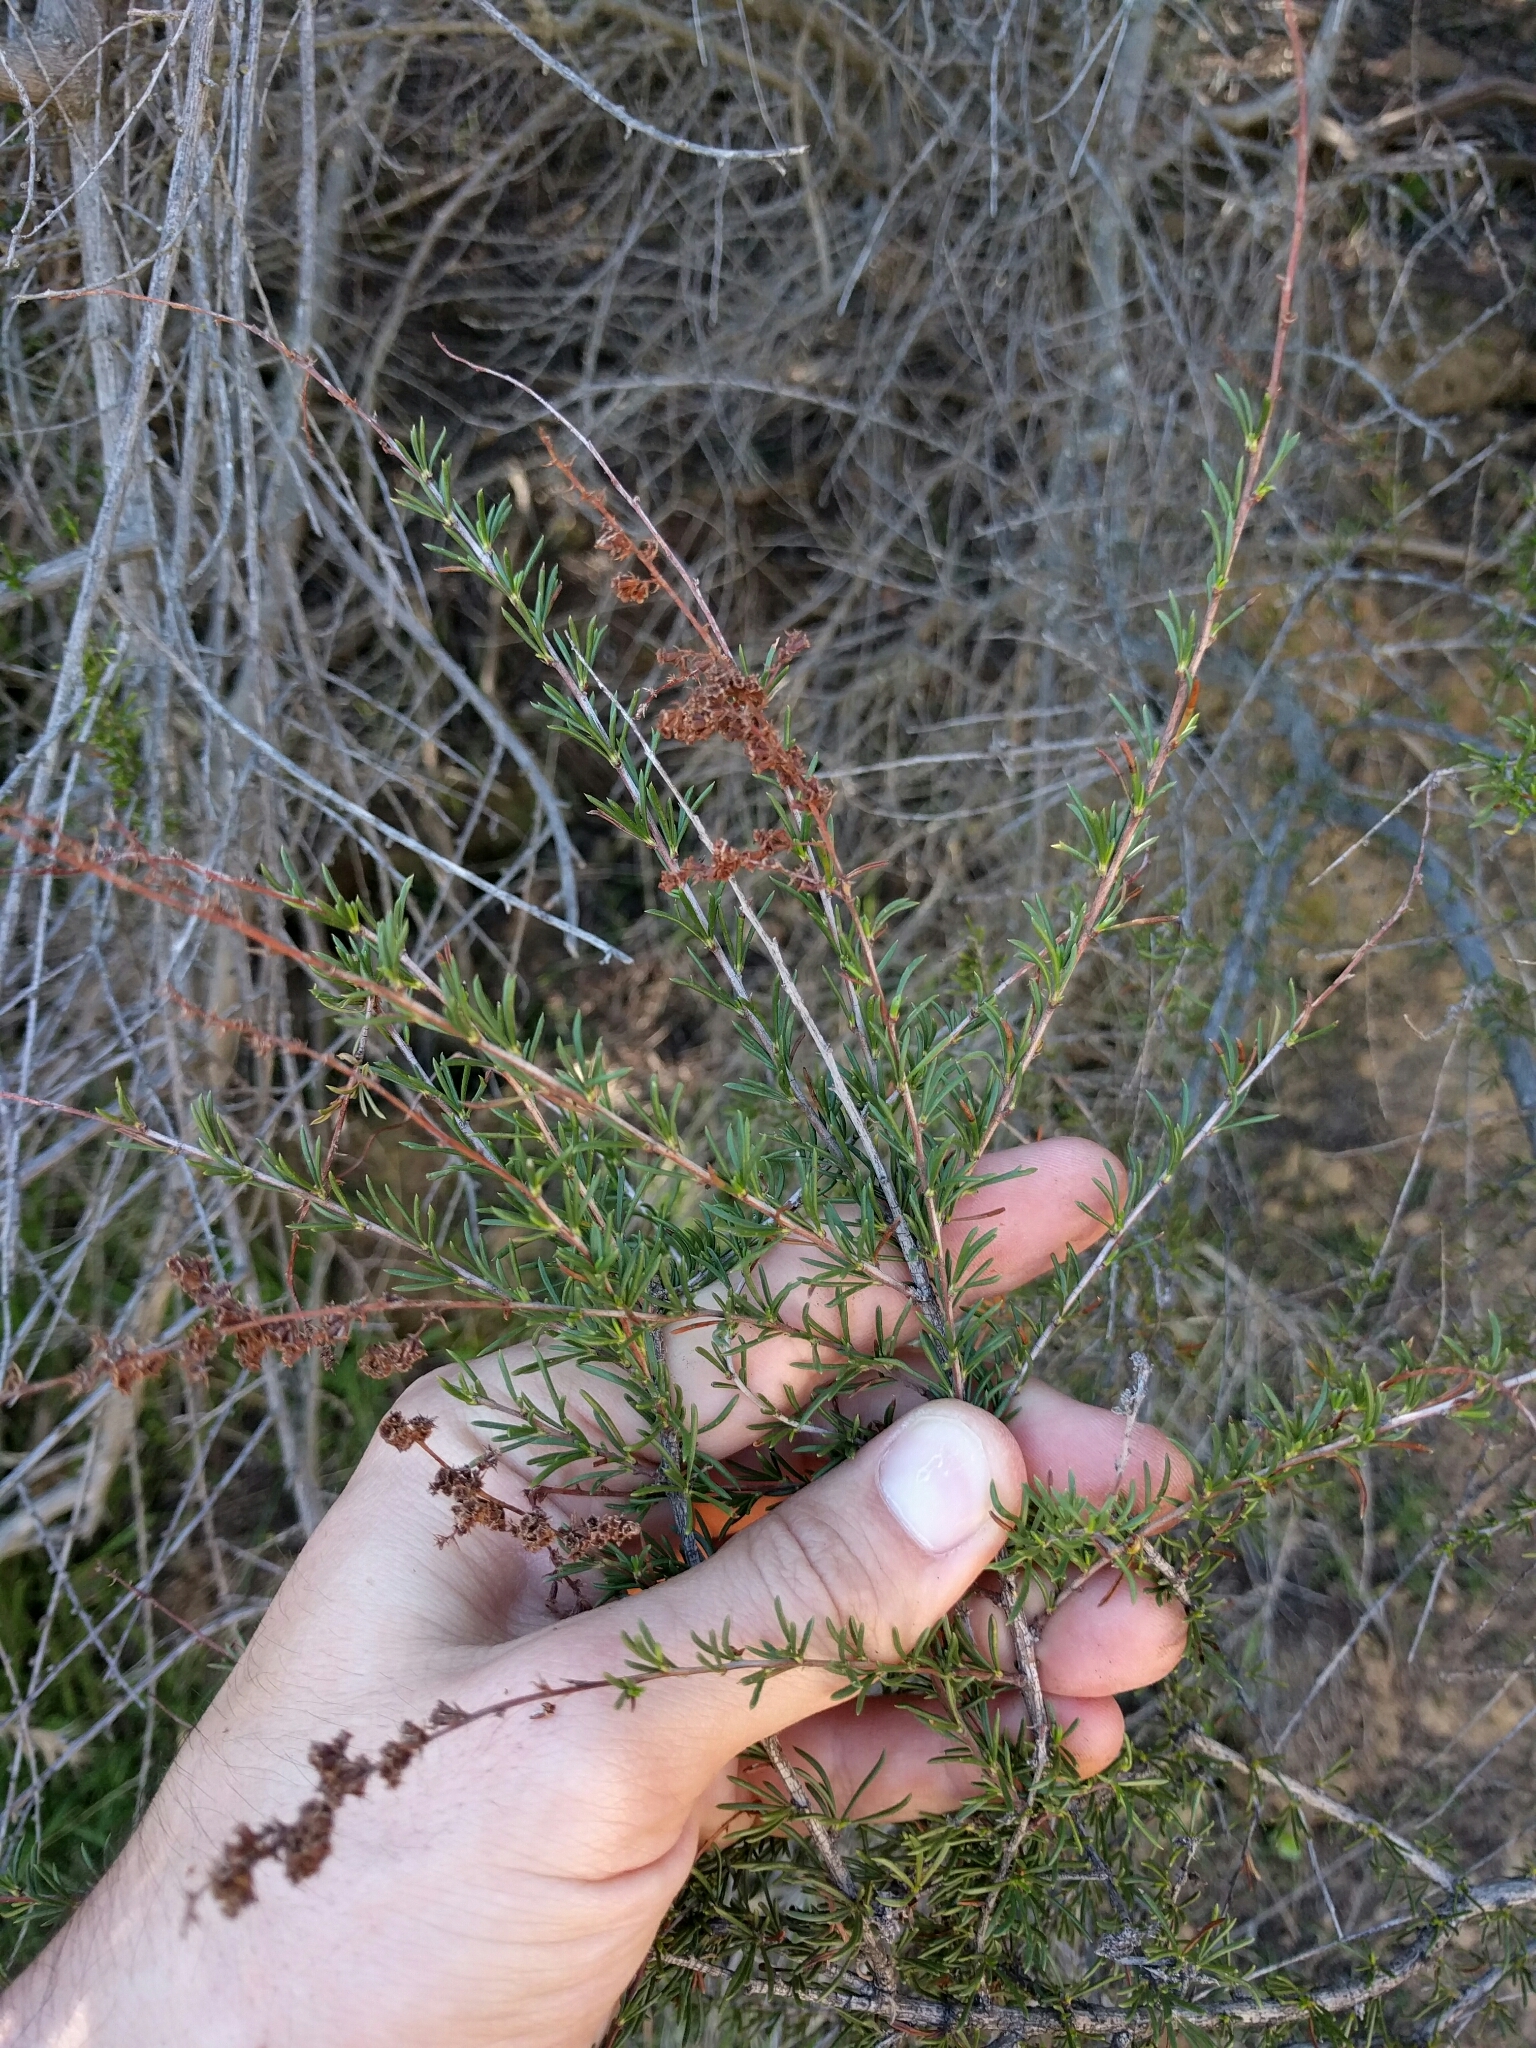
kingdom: Plantae
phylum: Tracheophyta
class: Magnoliopsida
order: Rosales
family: Rosaceae
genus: Adenostoma
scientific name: Adenostoma fasciculatum
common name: Chamise
